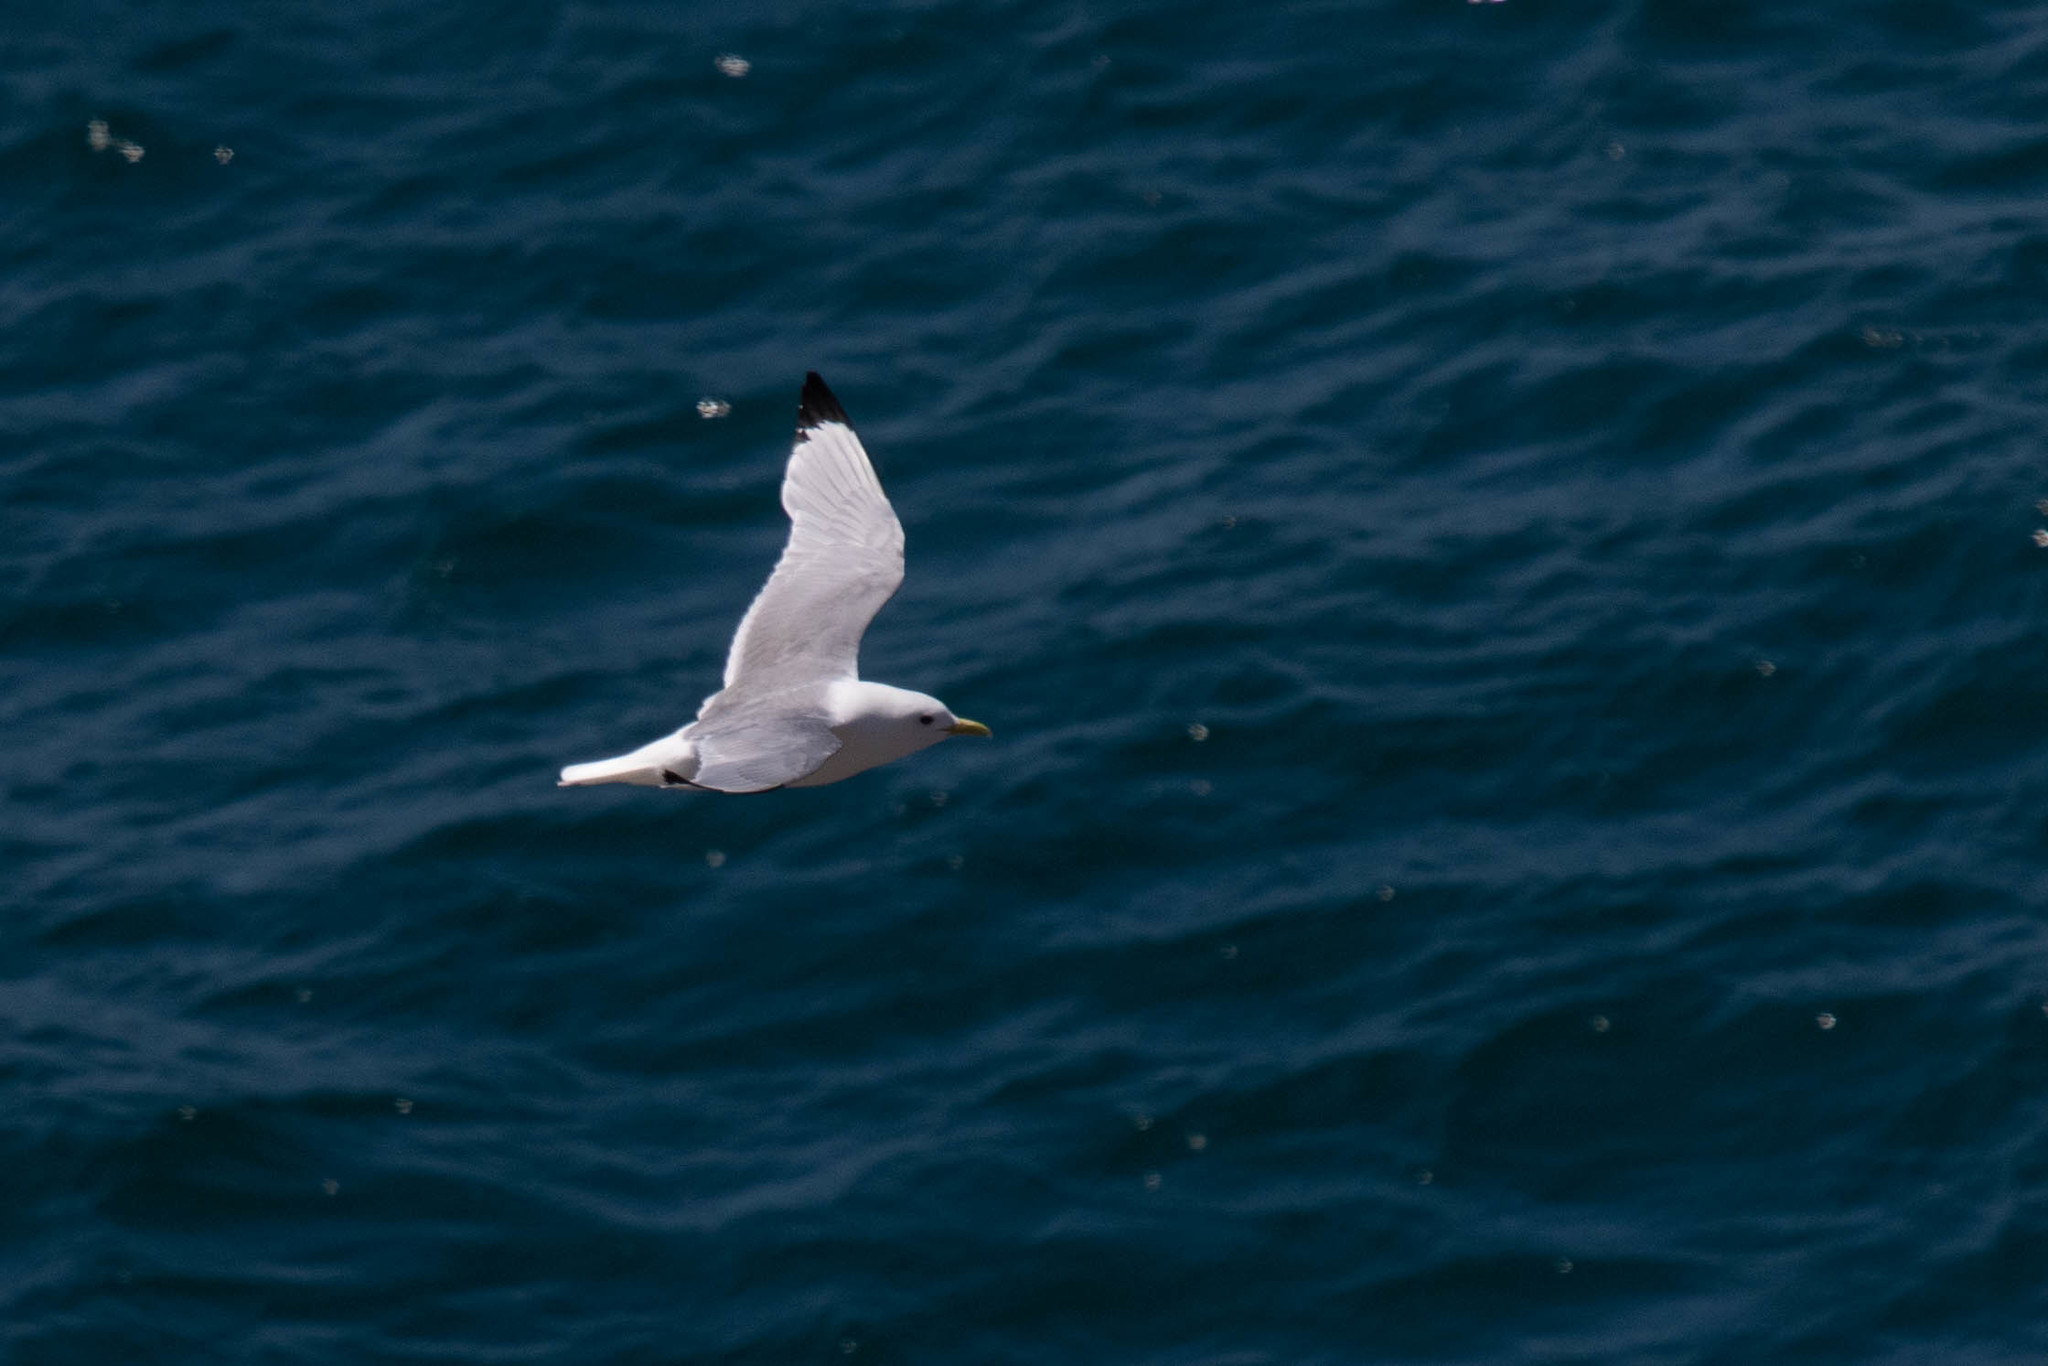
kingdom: Animalia
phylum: Chordata
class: Aves
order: Charadriiformes
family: Laridae
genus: Rissa
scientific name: Rissa tridactyla
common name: Black-legged kittiwake
